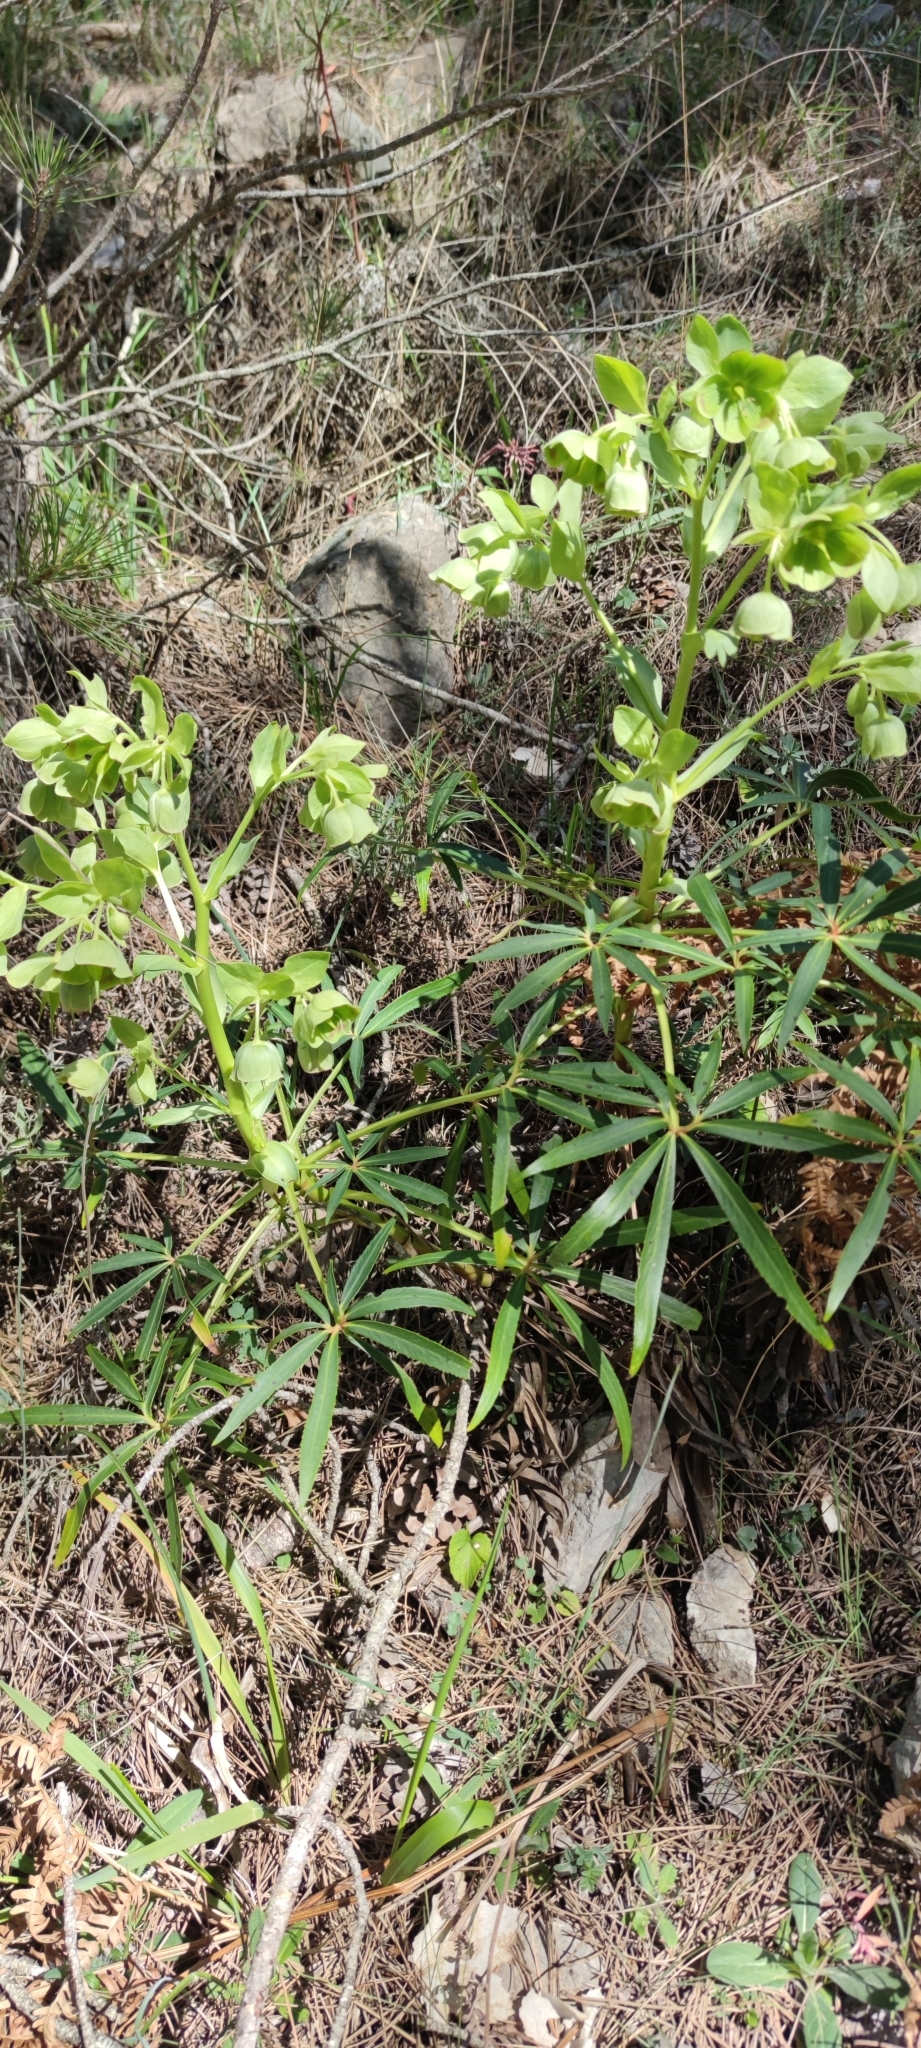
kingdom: Plantae
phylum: Tracheophyta
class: Magnoliopsida
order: Ranunculales
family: Ranunculaceae
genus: Helleborus
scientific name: Helleborus foetidus
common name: Stinking hellebore
